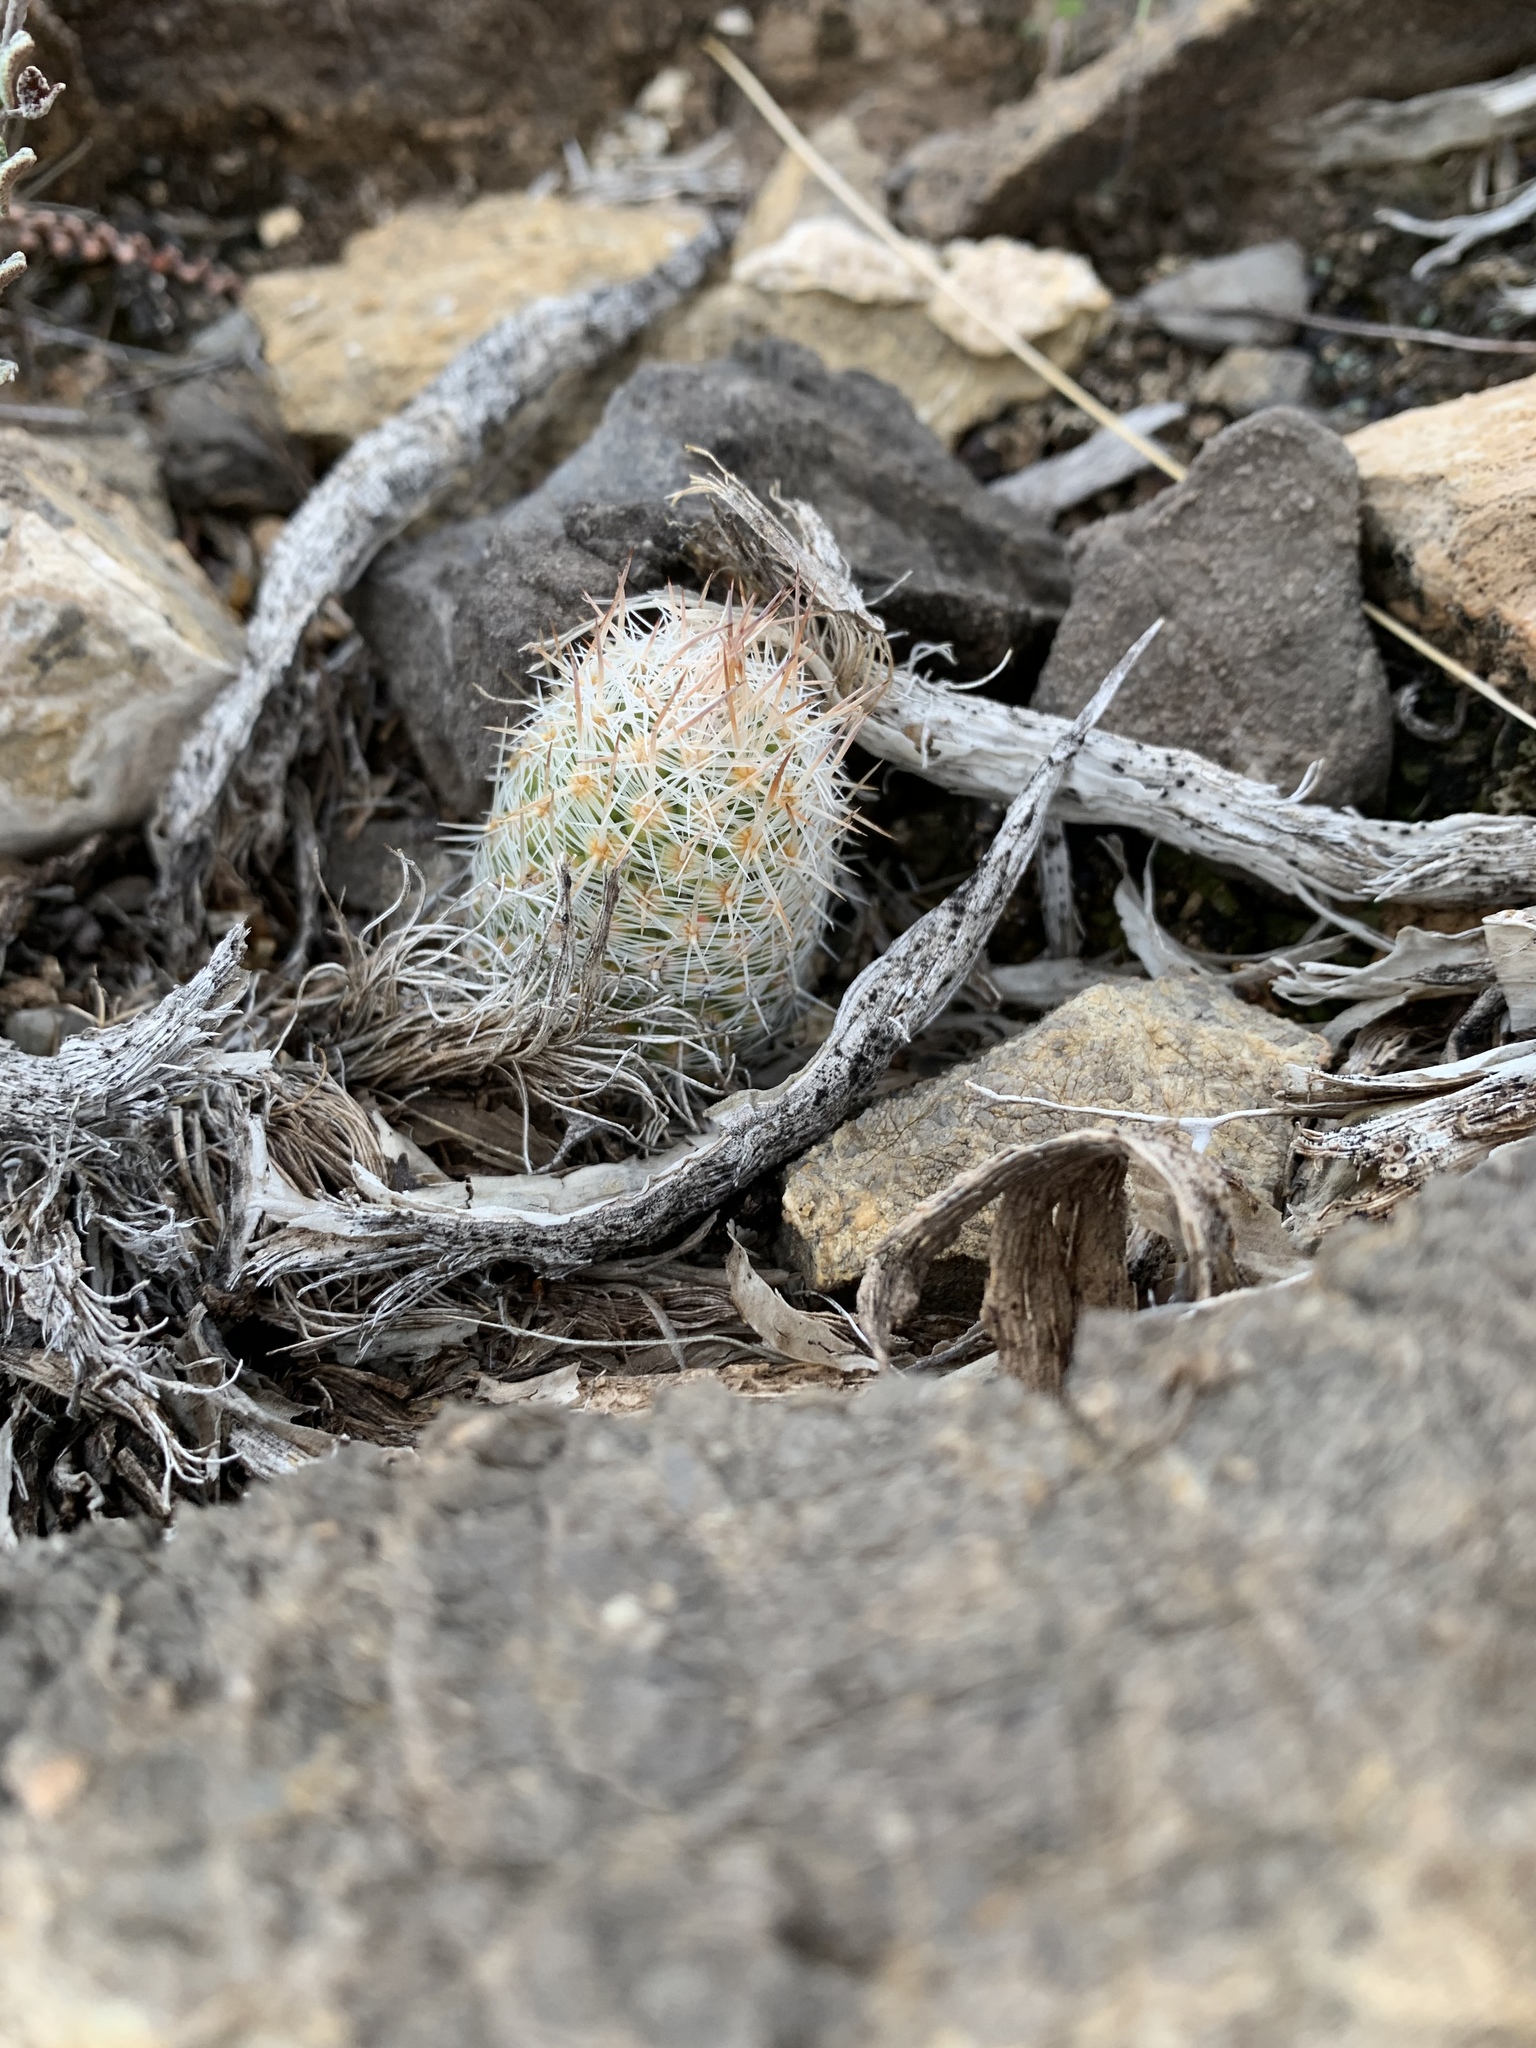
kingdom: Plantae
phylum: Tracheophyta
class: Magnoliopsida
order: Caryophyllales
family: Cactaceae
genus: Pelecyphora
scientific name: Pelecyphora tuberculosa
